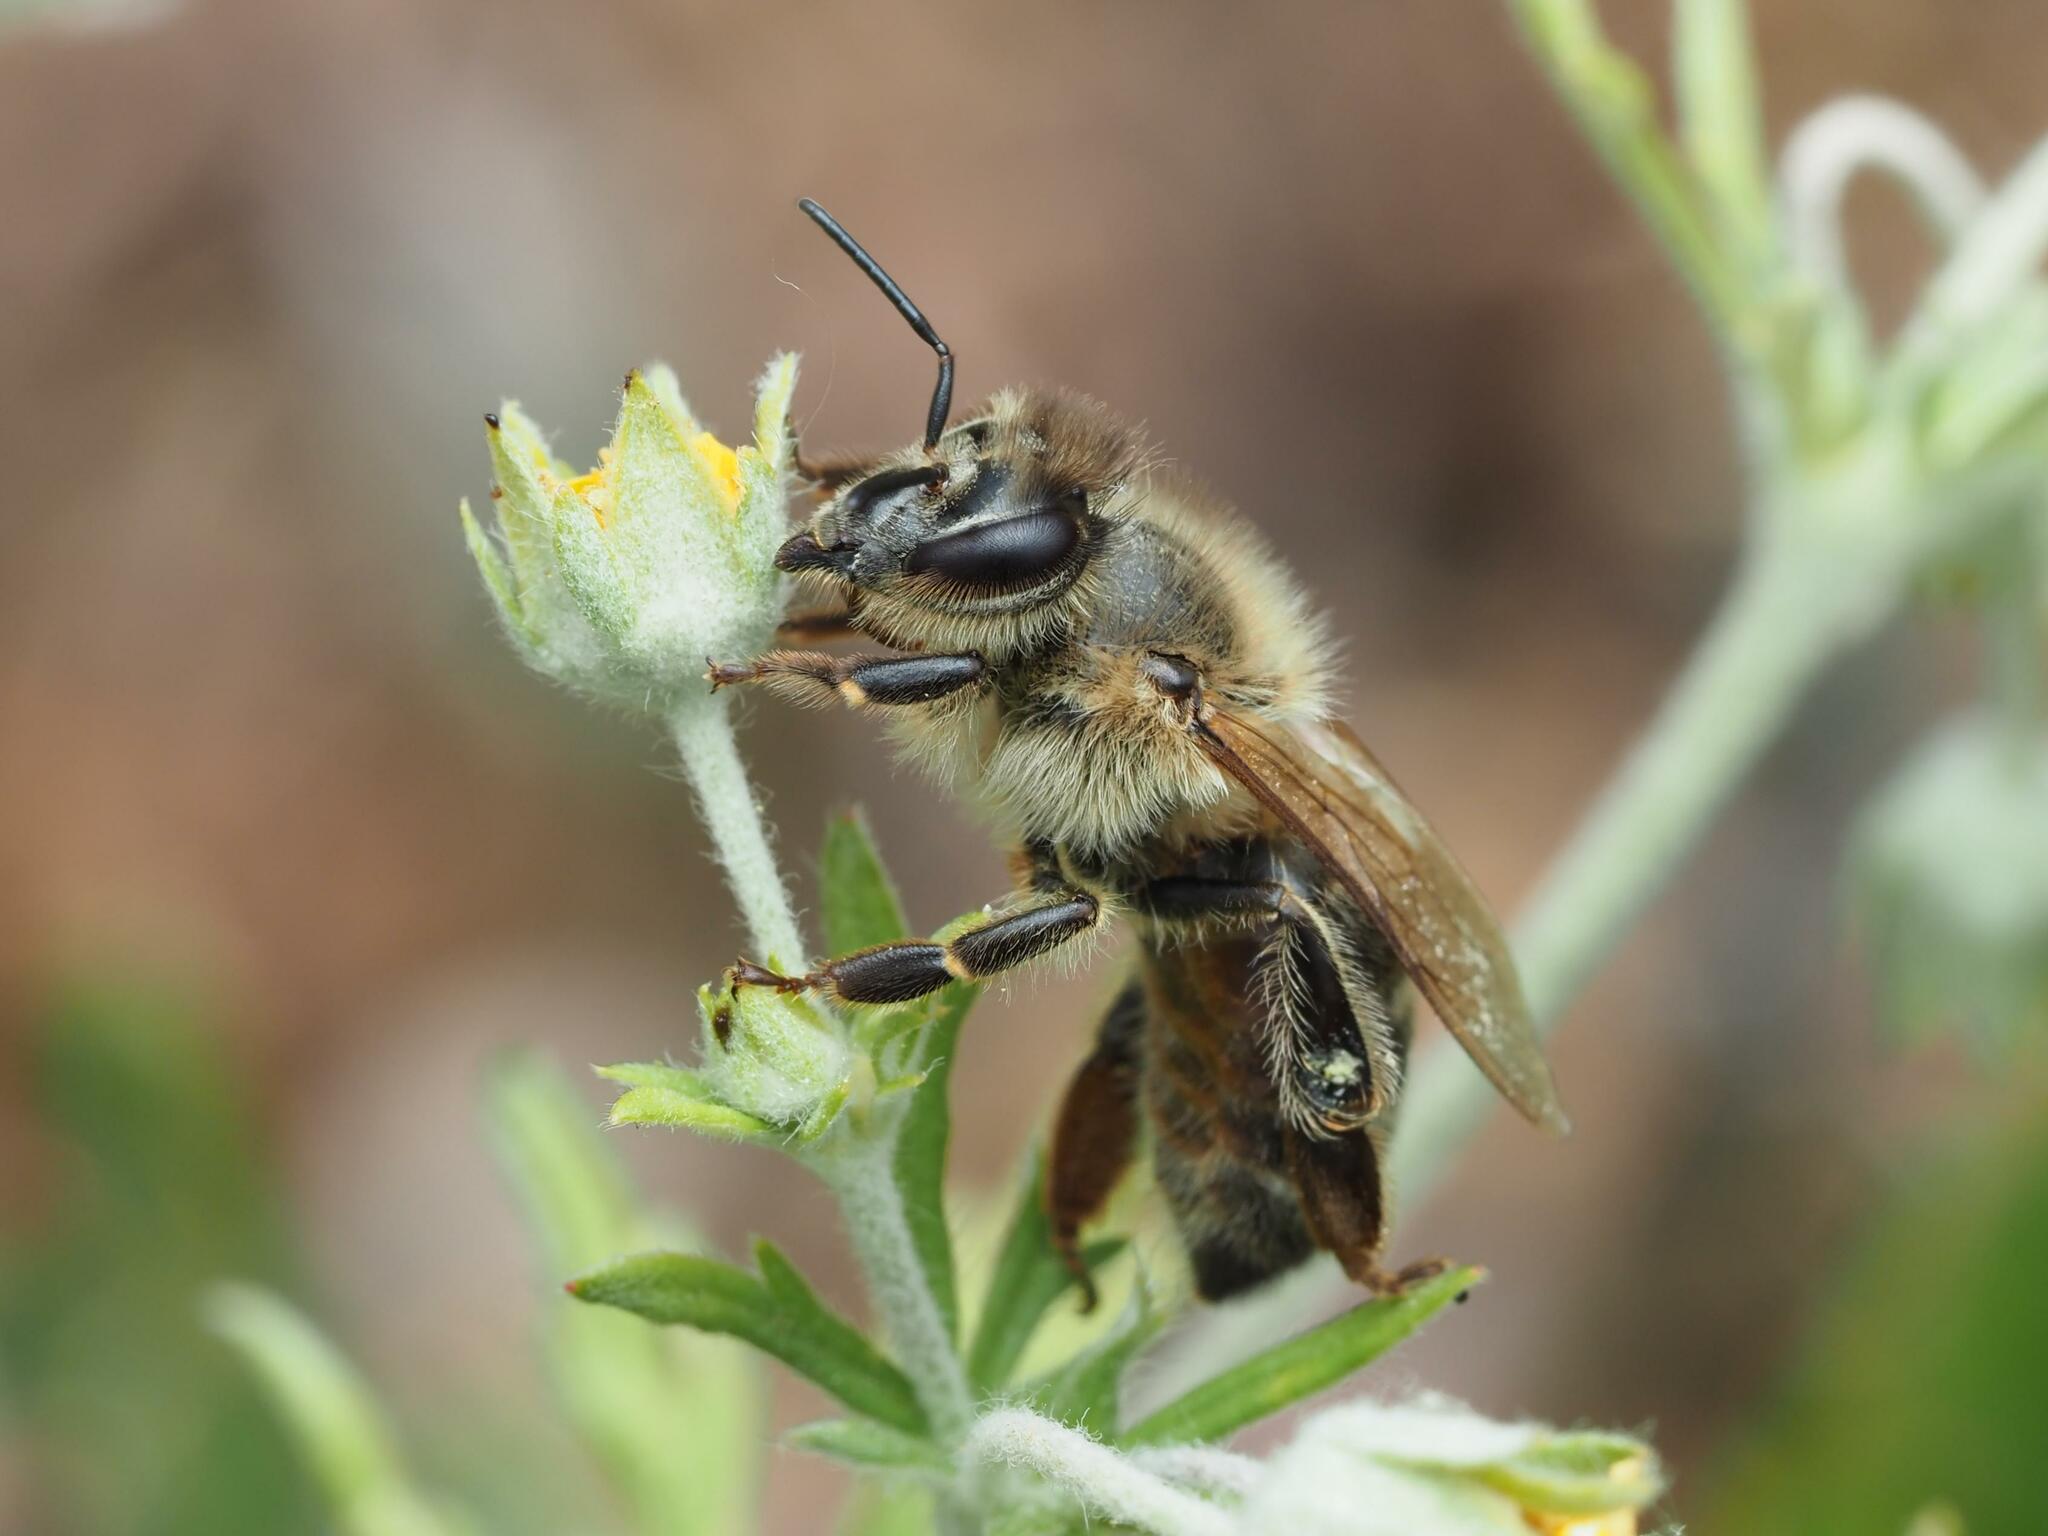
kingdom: Animalia
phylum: Arthropoda
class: Insecta
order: Hymenoptera
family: Apidae
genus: Apis
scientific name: Apis mellifera
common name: Honey bee
